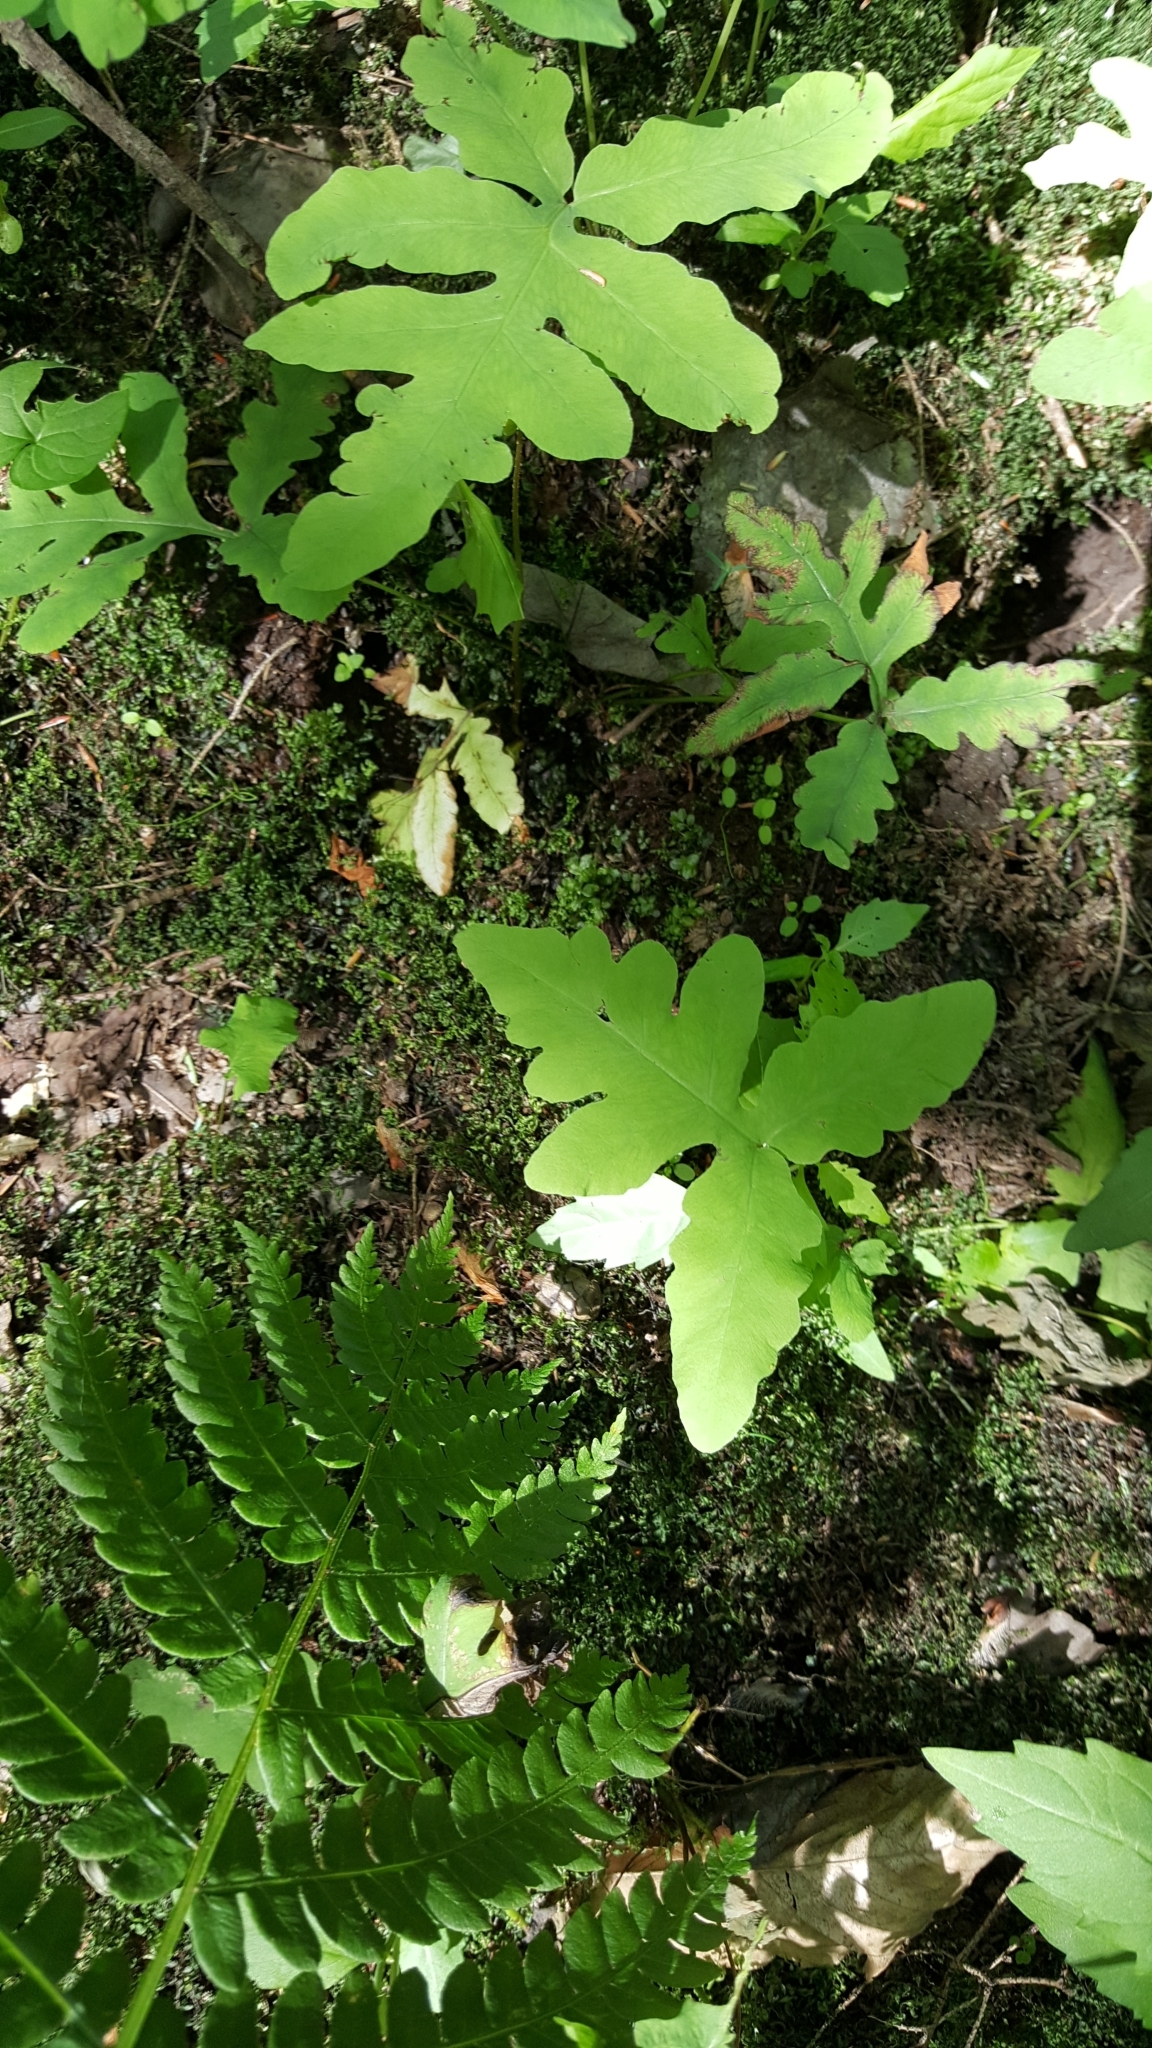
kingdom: Plantae
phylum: Tracheophyta
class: Polypodiopsida
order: Polypodiales
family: Onocleaceae
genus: Onoclea
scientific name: Onoclea sensibilis
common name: Sensitive fern
